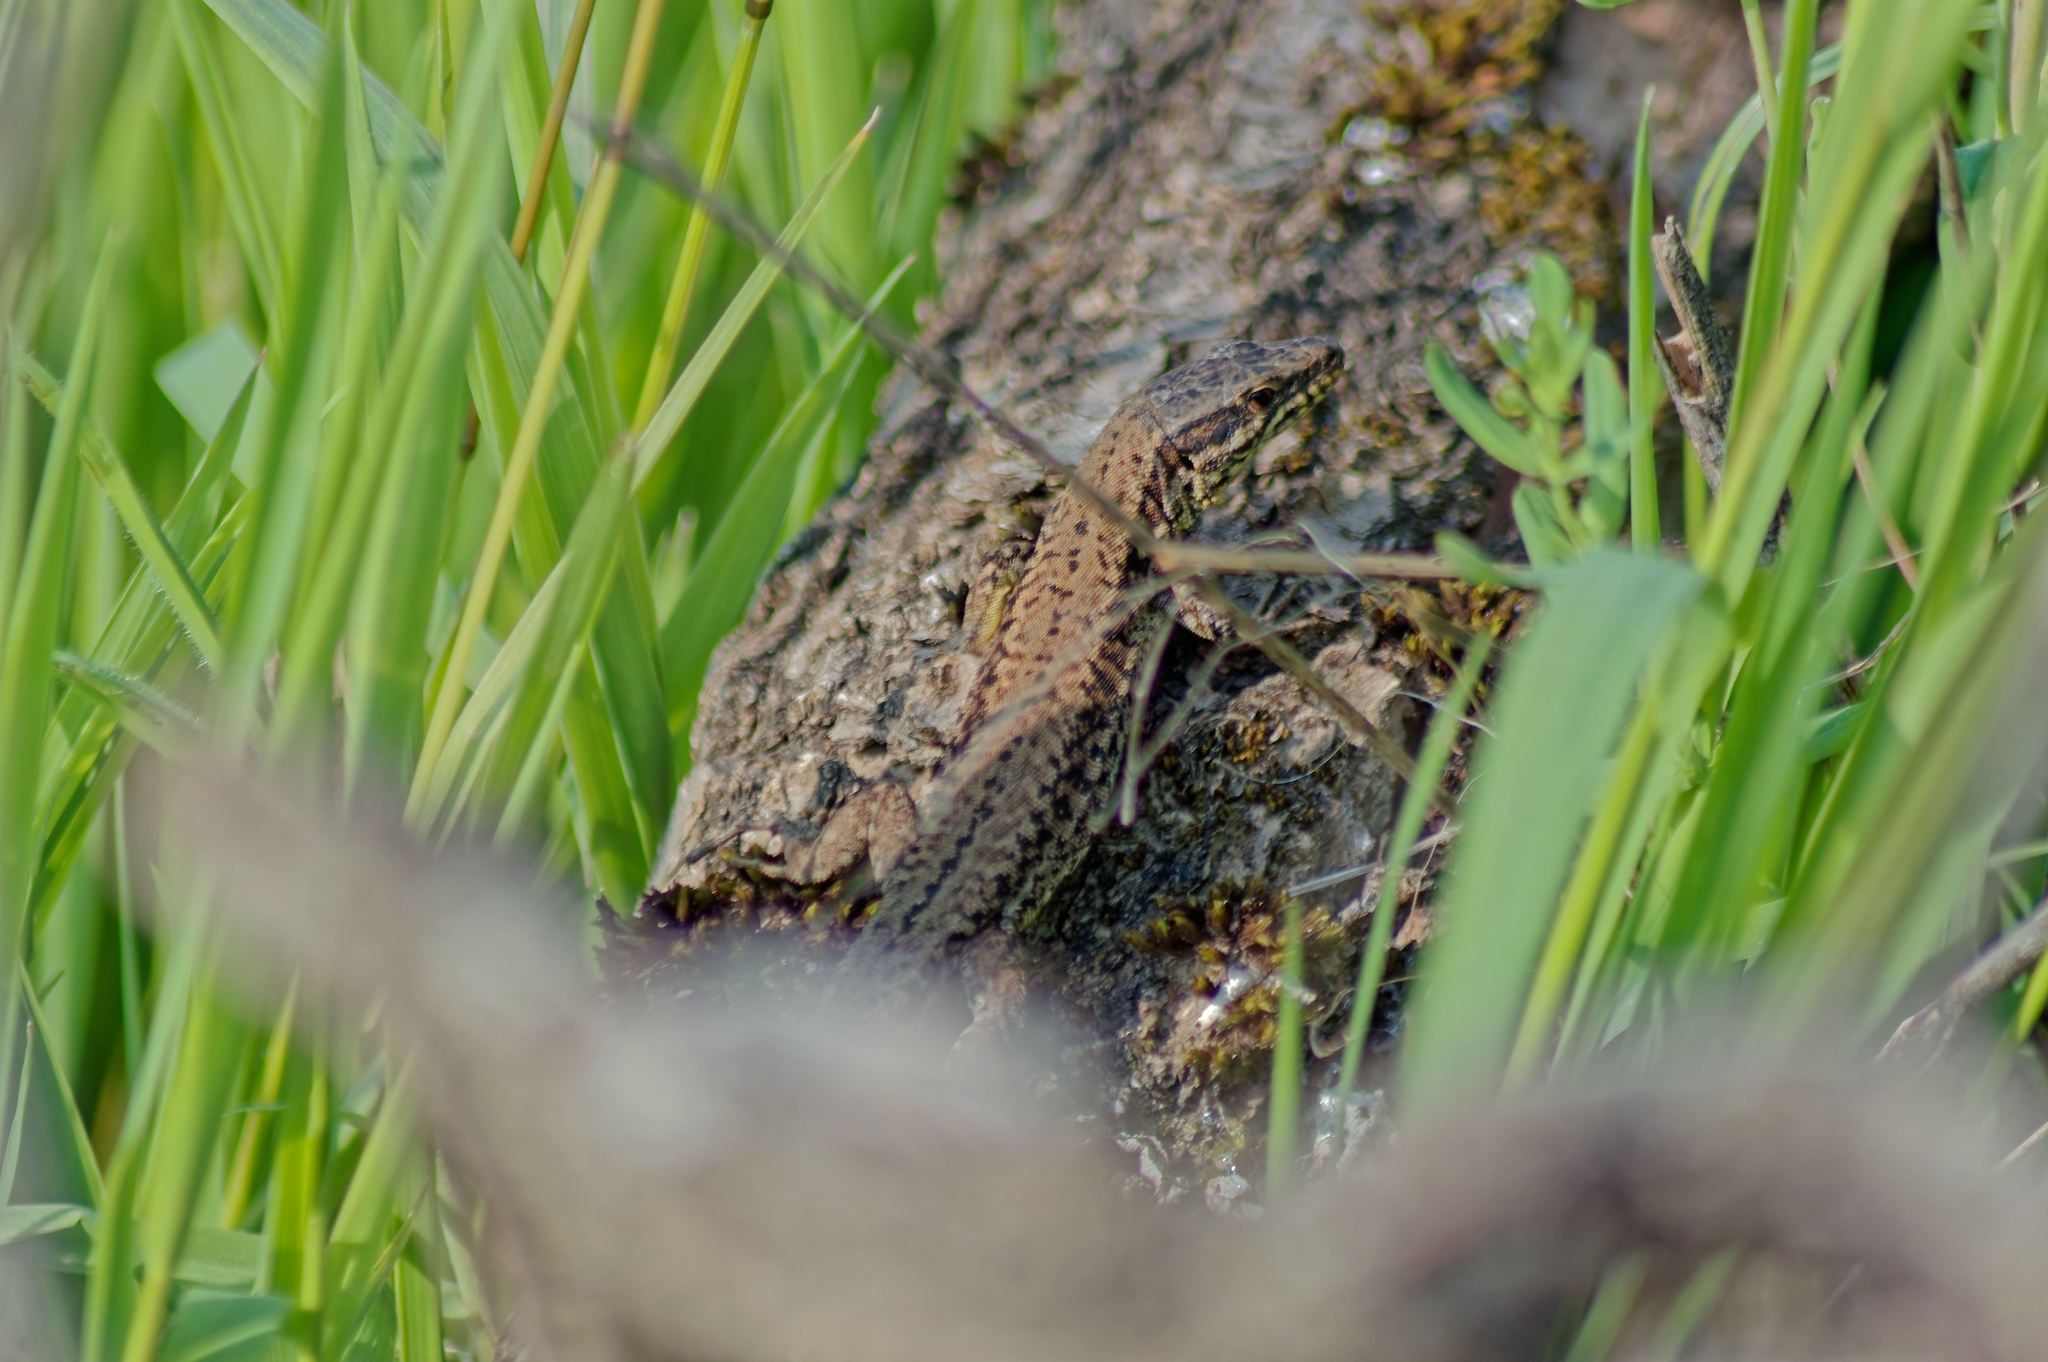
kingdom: Animalia
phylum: Chordata
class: Squamata
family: Lacertidae
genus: Podarcis
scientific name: Podarcis muralis
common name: Common wall lizard
